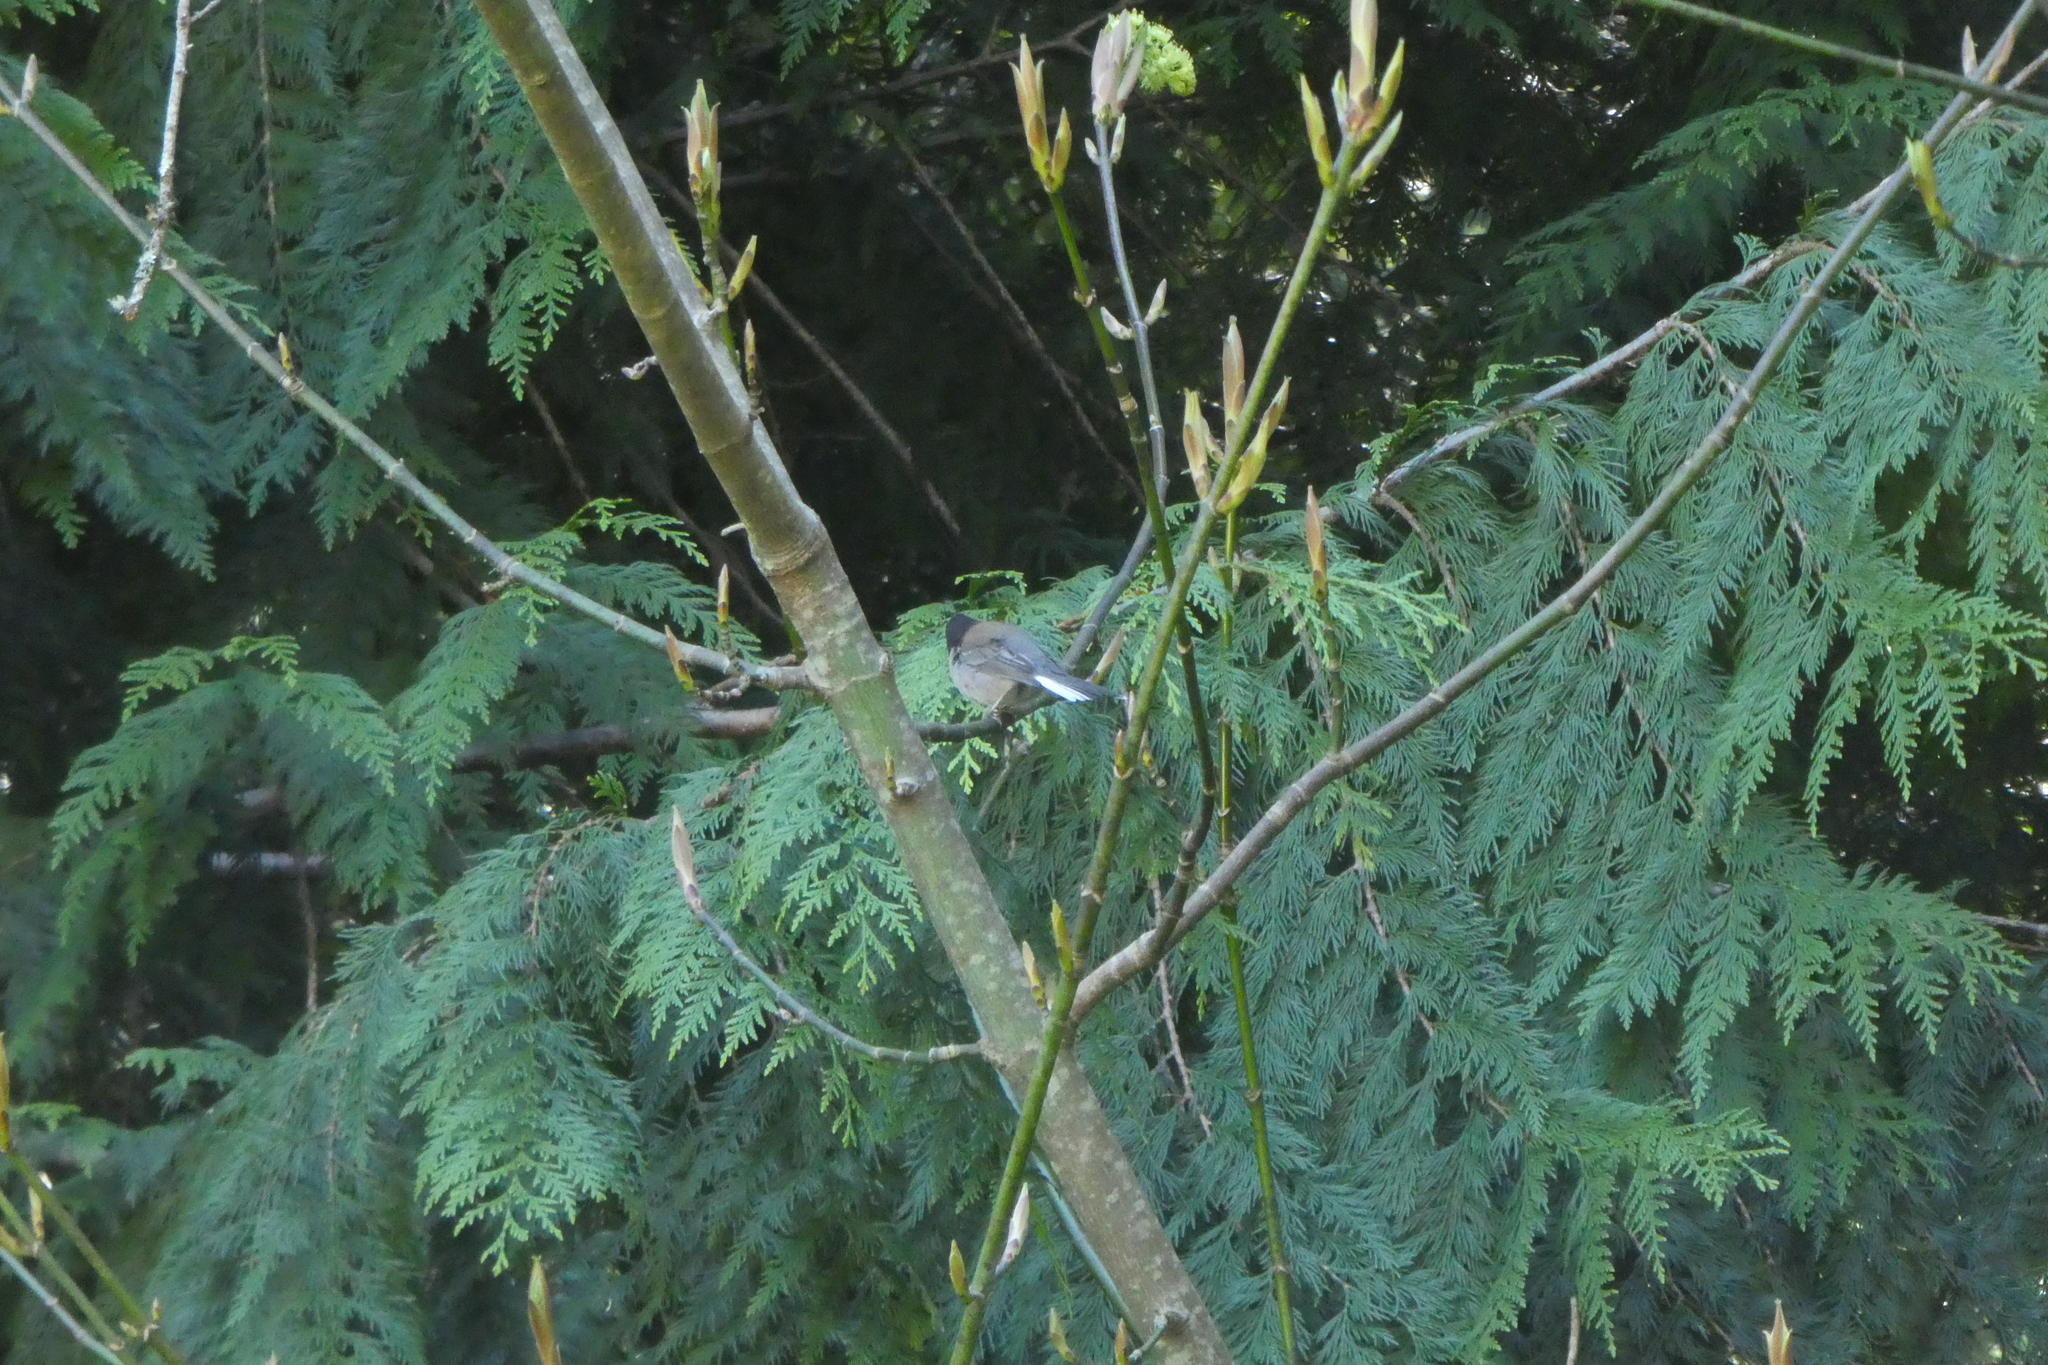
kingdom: Animalia
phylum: Chordata
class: Aves
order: Passeriformes
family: Passerellidae
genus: Junco
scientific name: Junco hyemalis
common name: Dark-eyed junco
